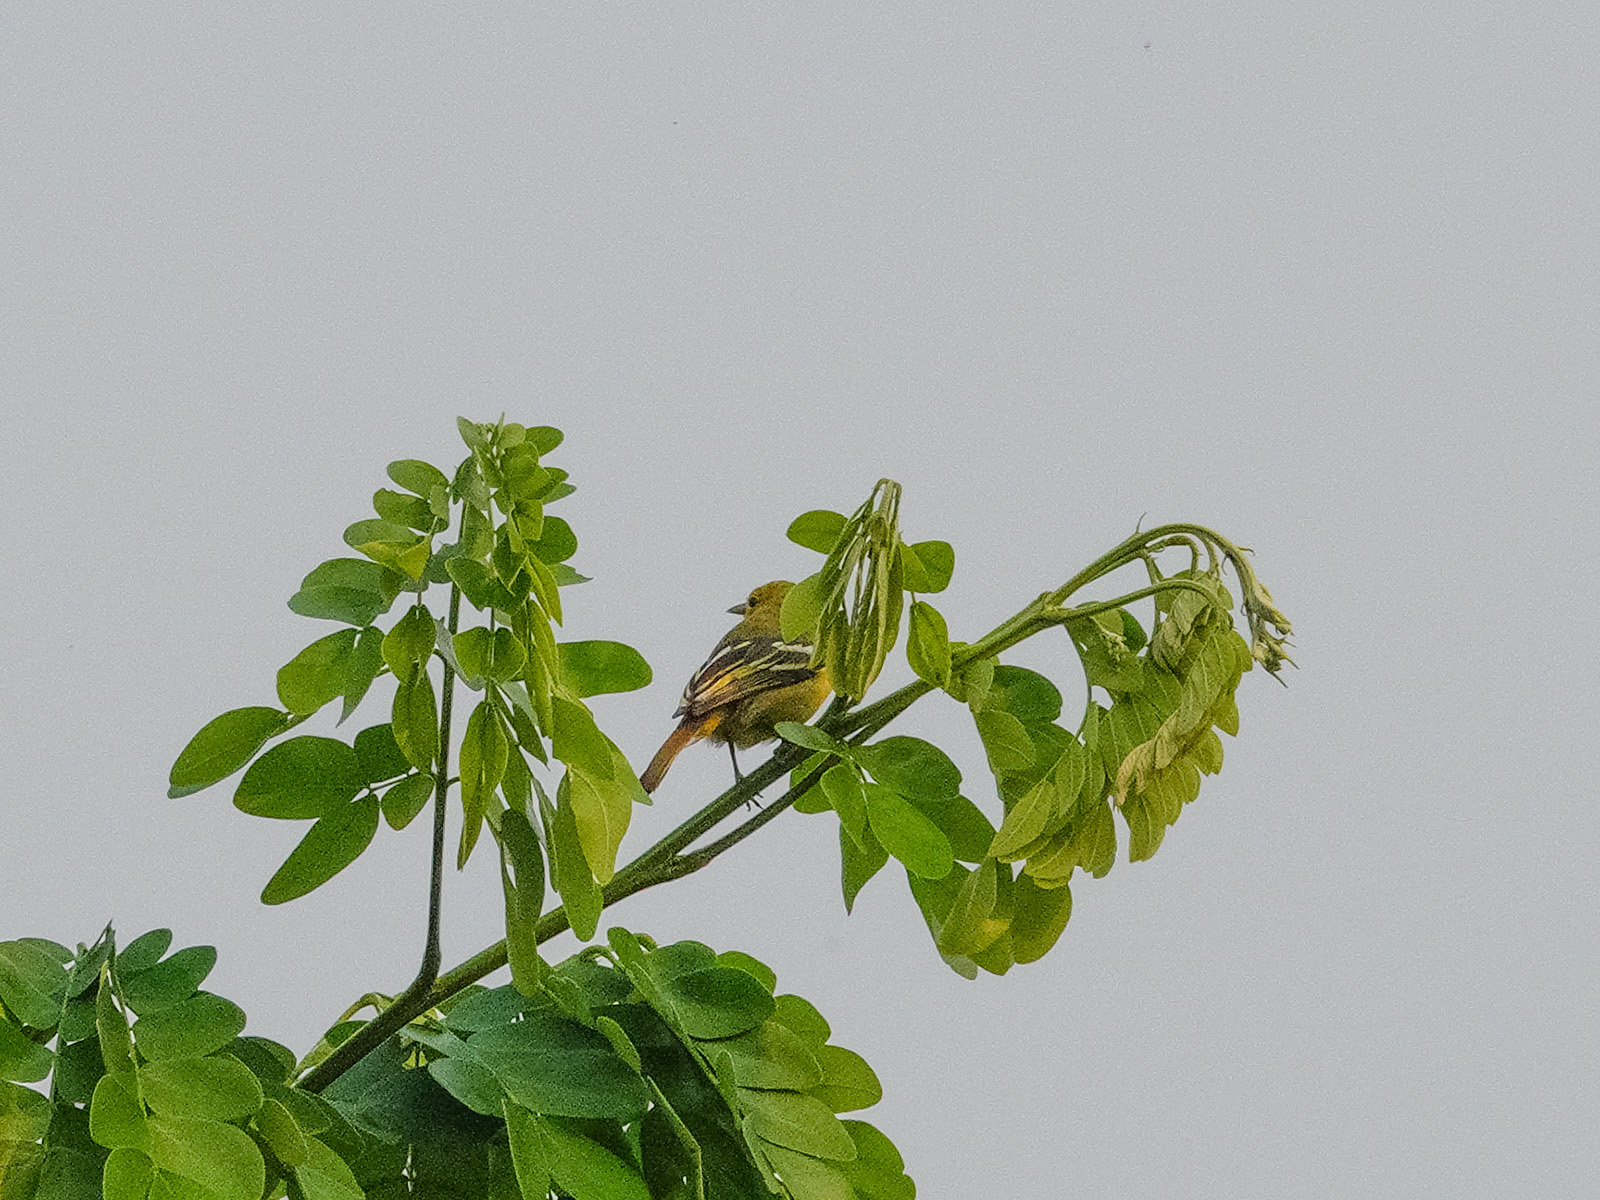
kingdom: Animalia
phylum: Chordata
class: Aves
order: Passeriformes
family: Aegithinidae
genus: Aegithina
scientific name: Aegithina tiphia
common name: Common iora
